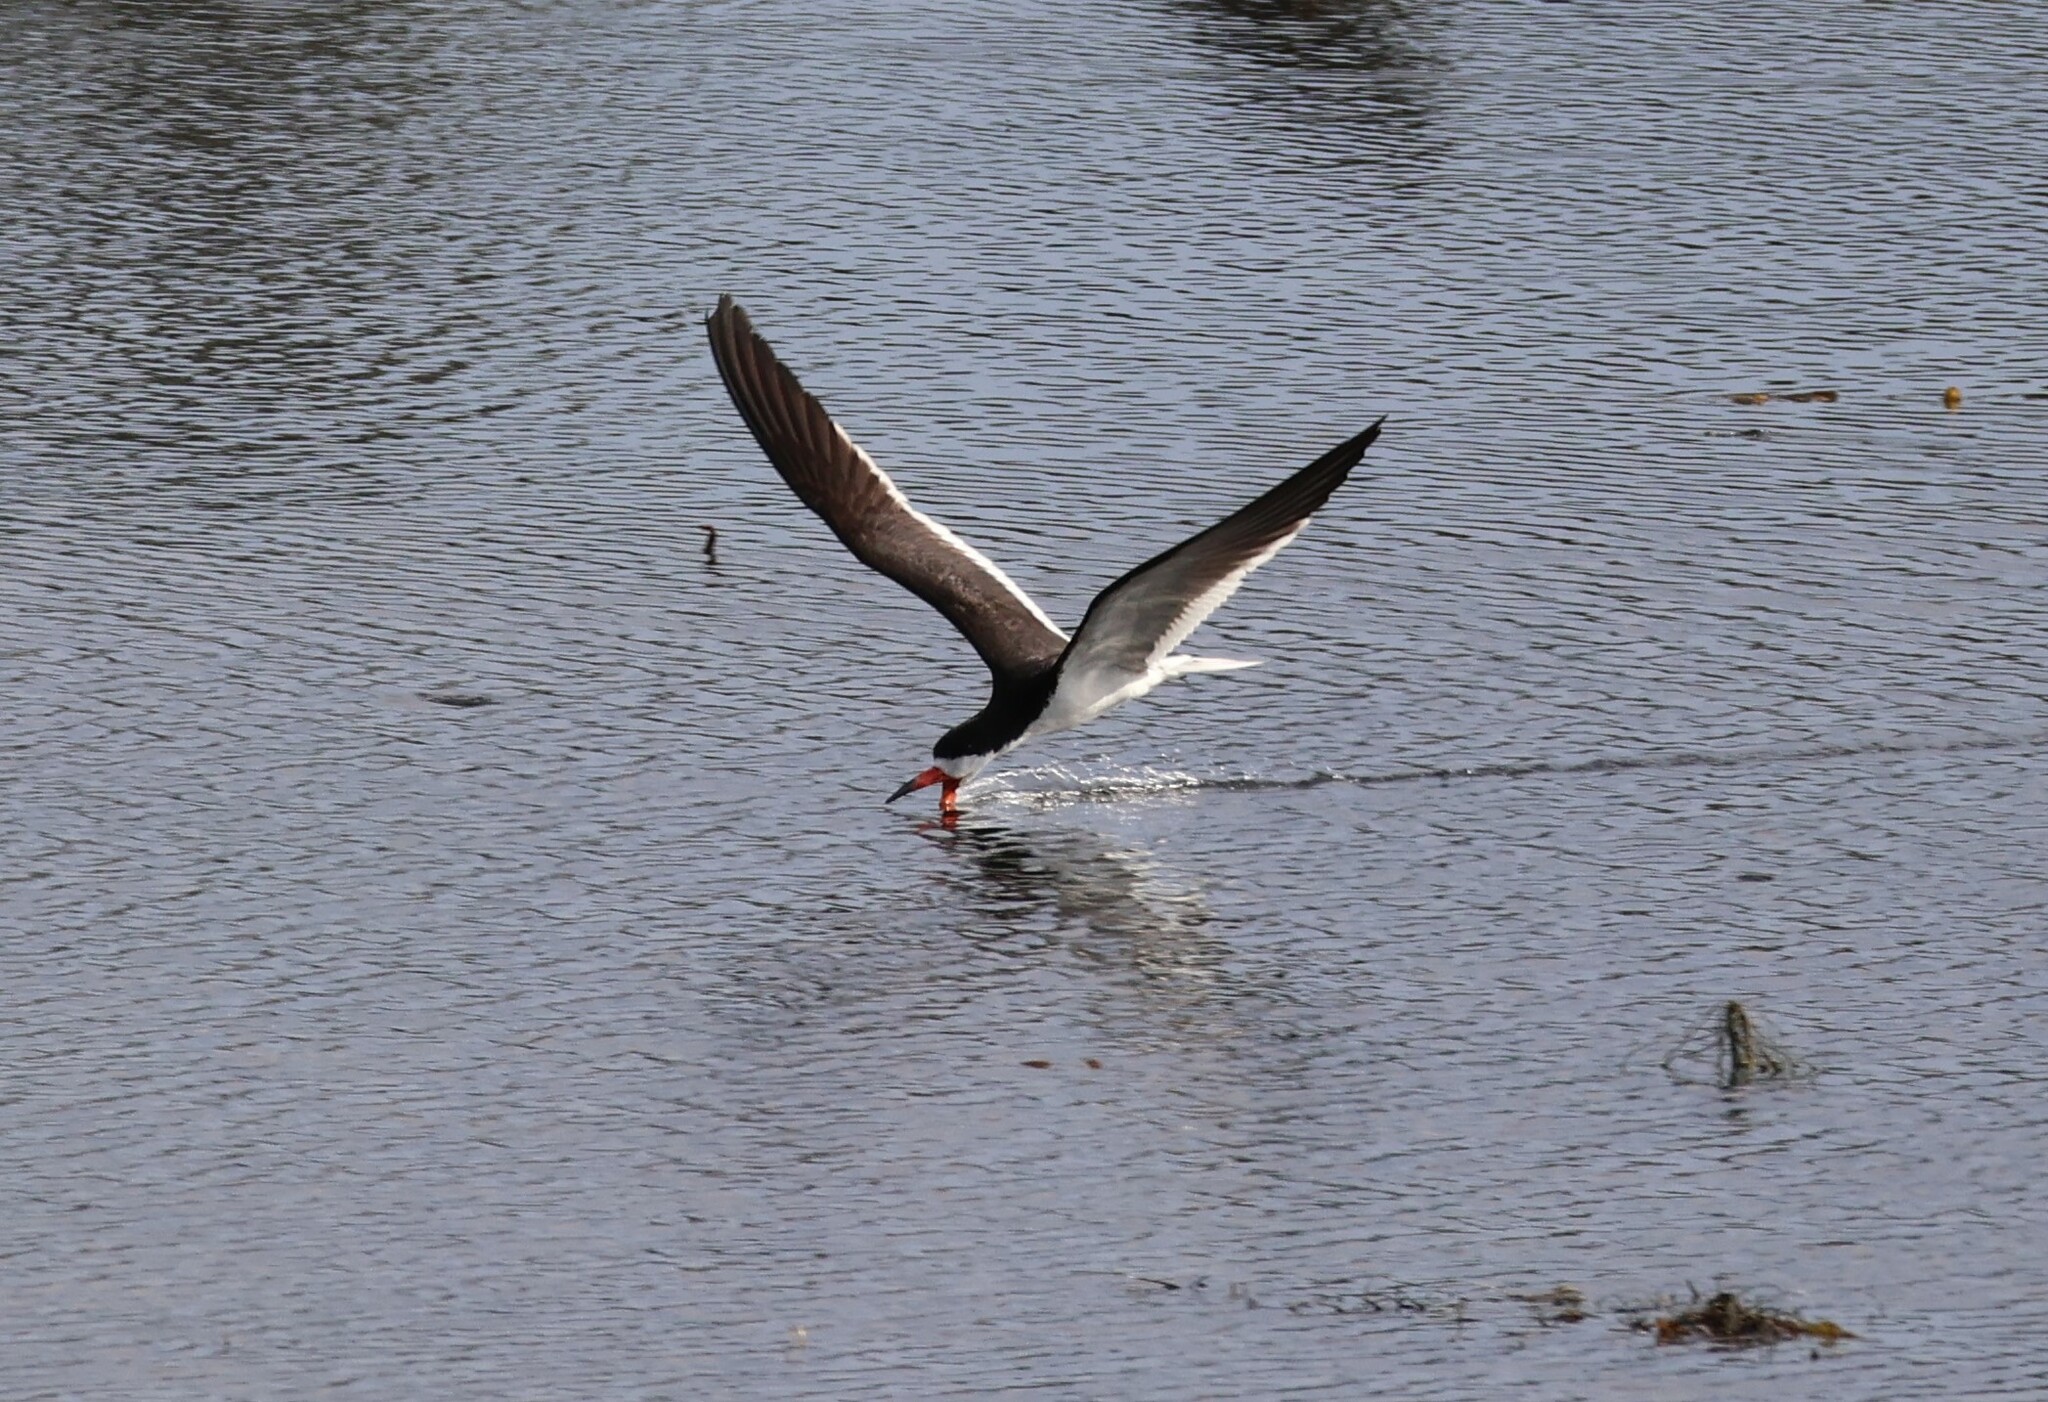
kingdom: Animalia
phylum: Chordata
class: Aves
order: Charadriiformes
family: Laridae
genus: Rynchops
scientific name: Rynchops niger
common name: Black skimmer
